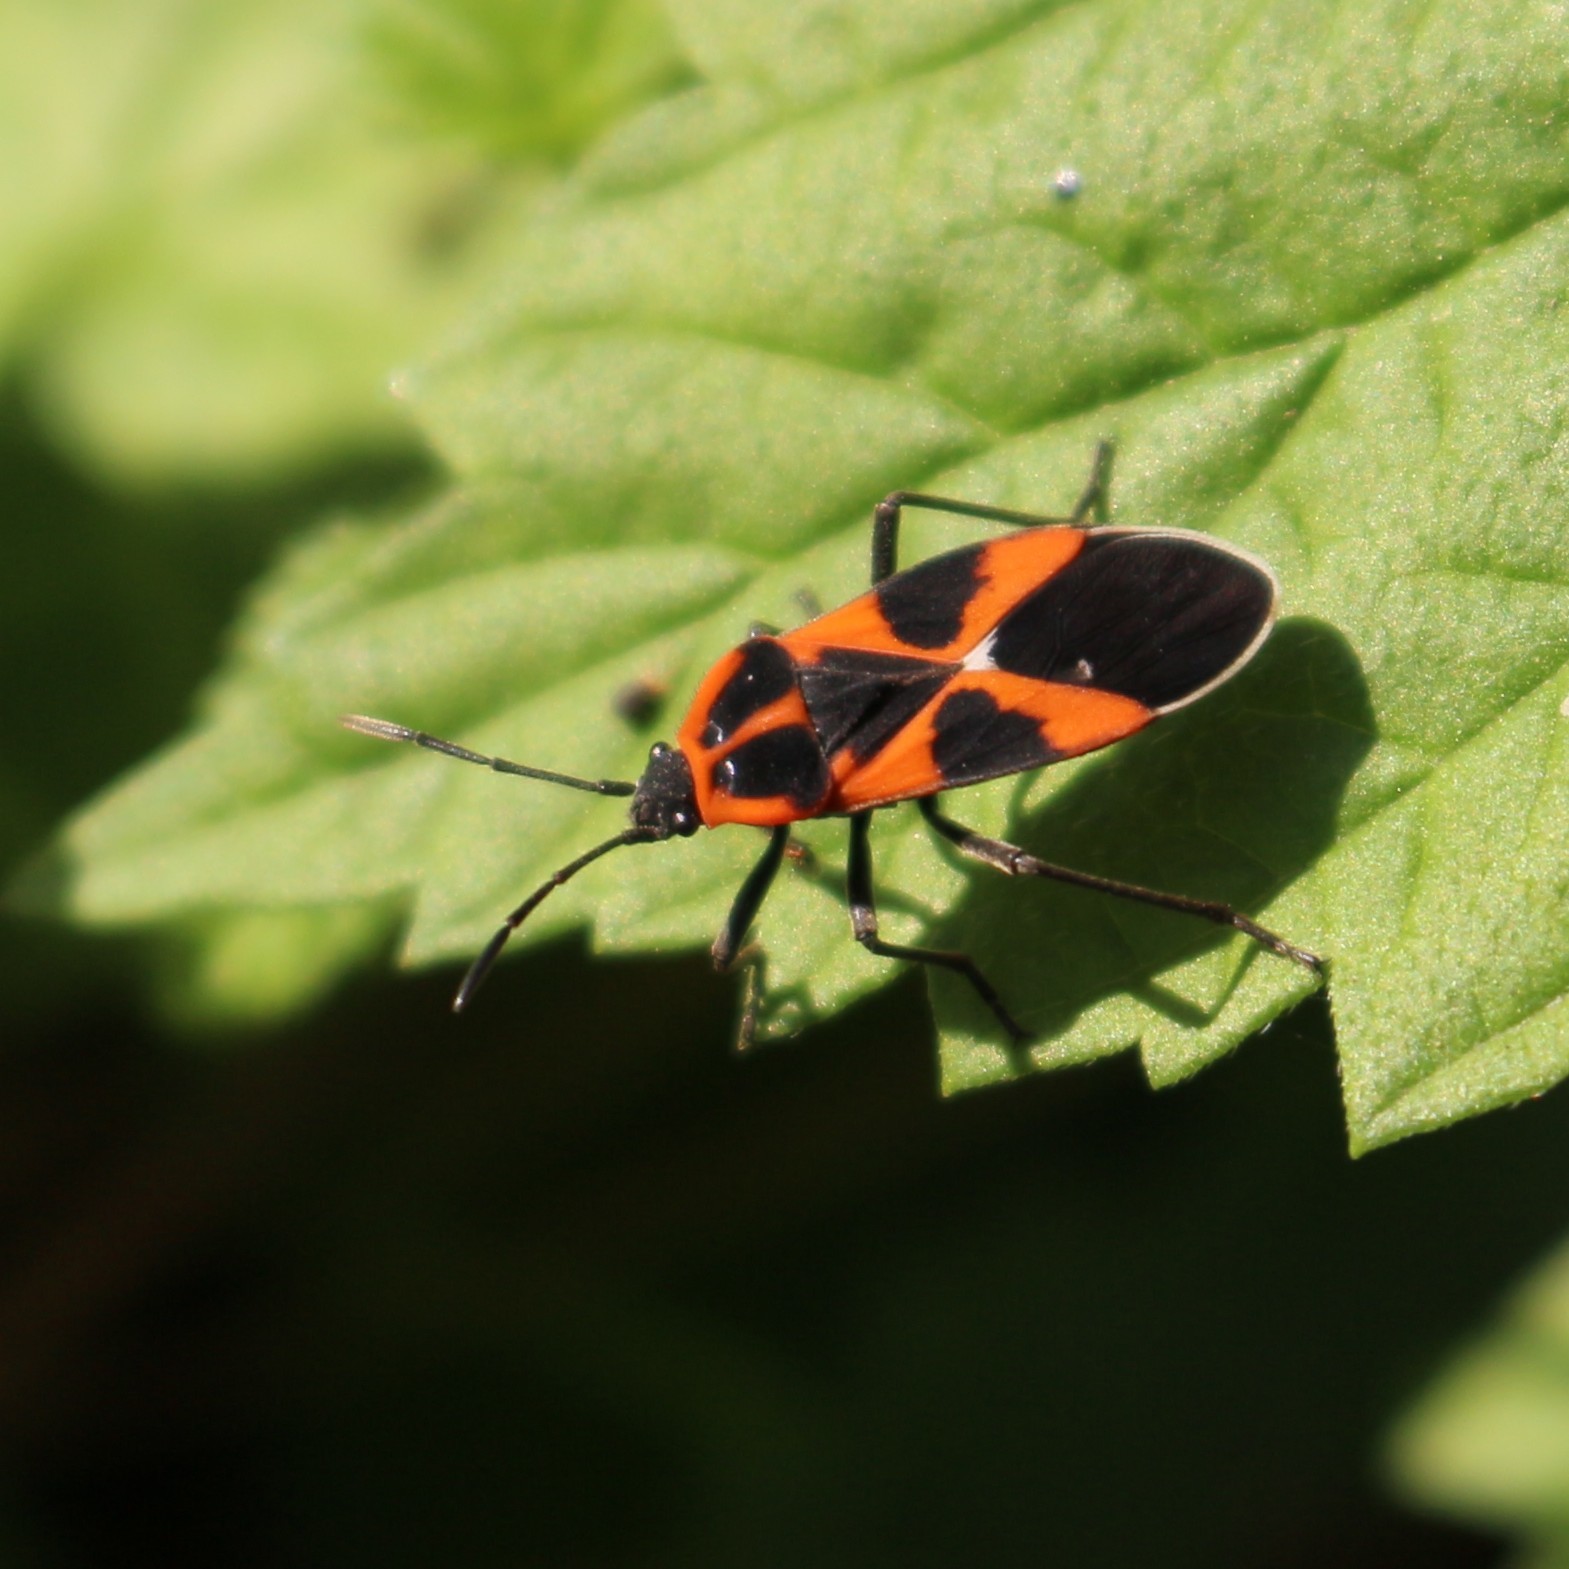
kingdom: Animalia
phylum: Arthropoda
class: Insecta
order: Hemiptera
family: Lygaeidae
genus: Tropidothorax
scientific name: Tropidothorax leucopterus
